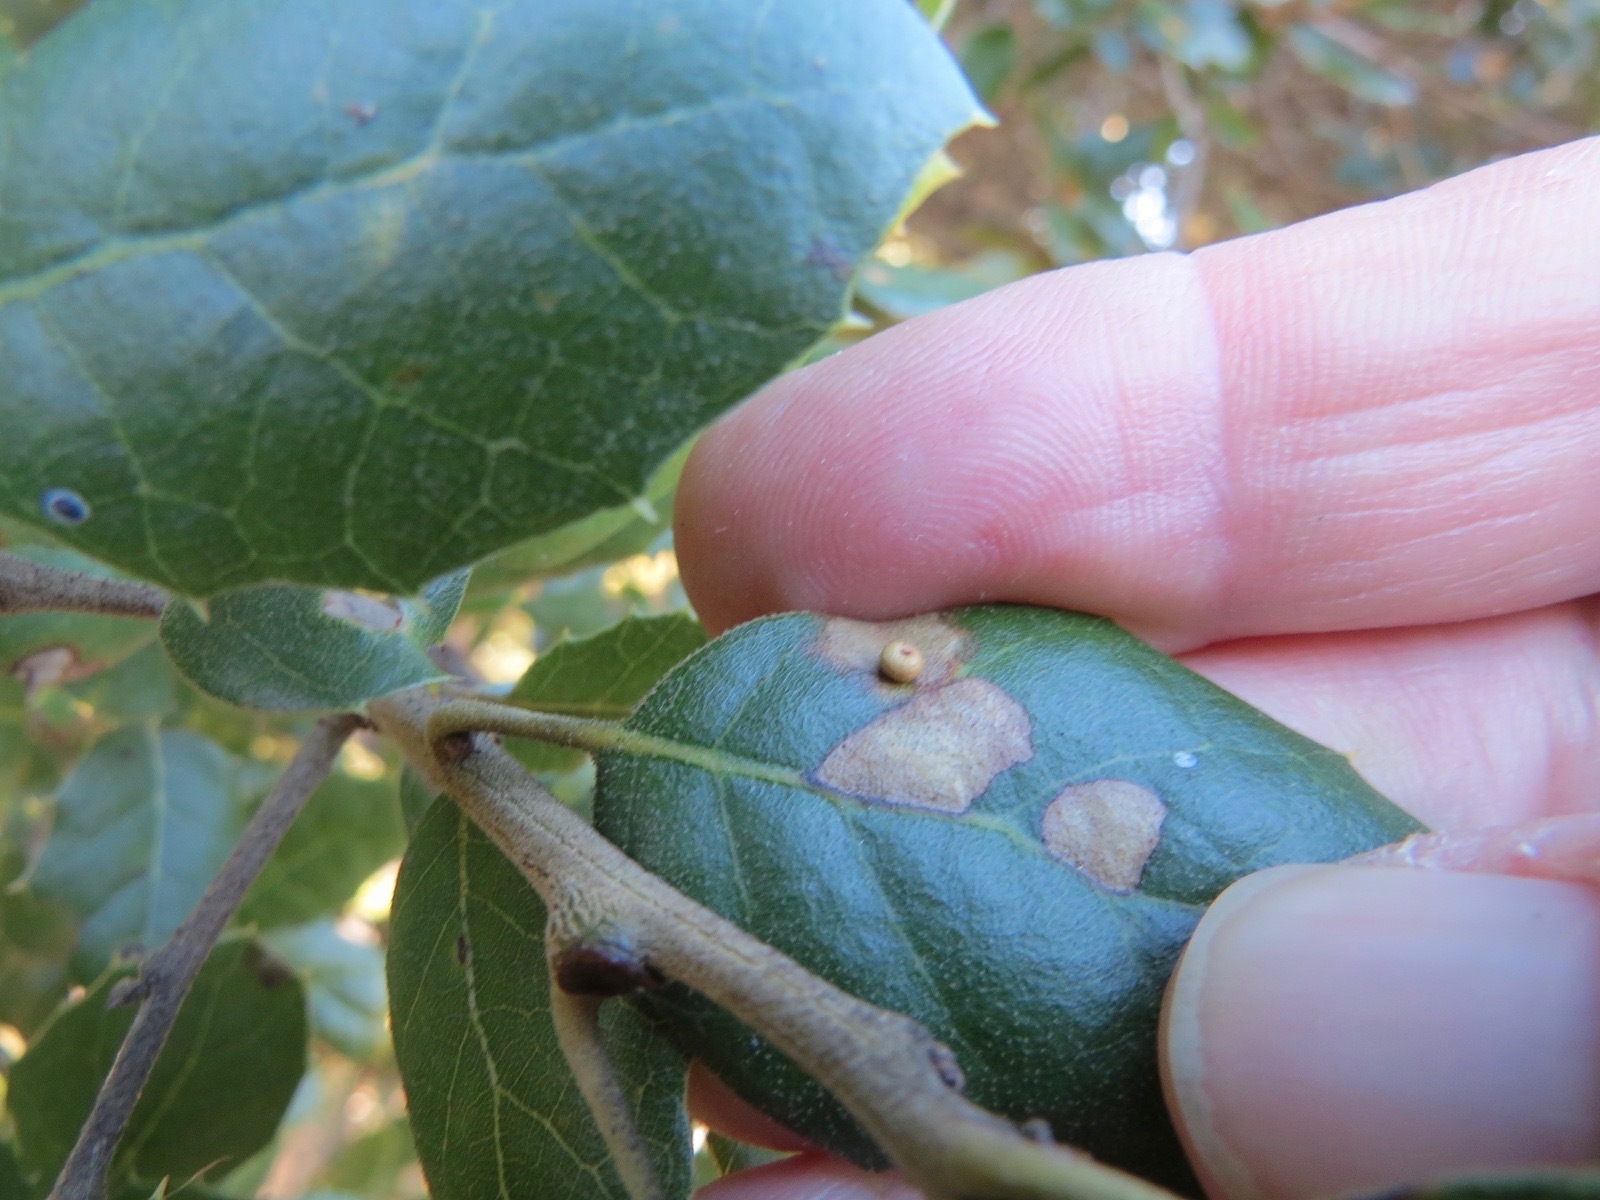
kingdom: Animalia
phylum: Arthropoda
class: Insecta
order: Hymenoptera
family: Cynipidae
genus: Dryocosmus
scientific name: Dryocosmus
